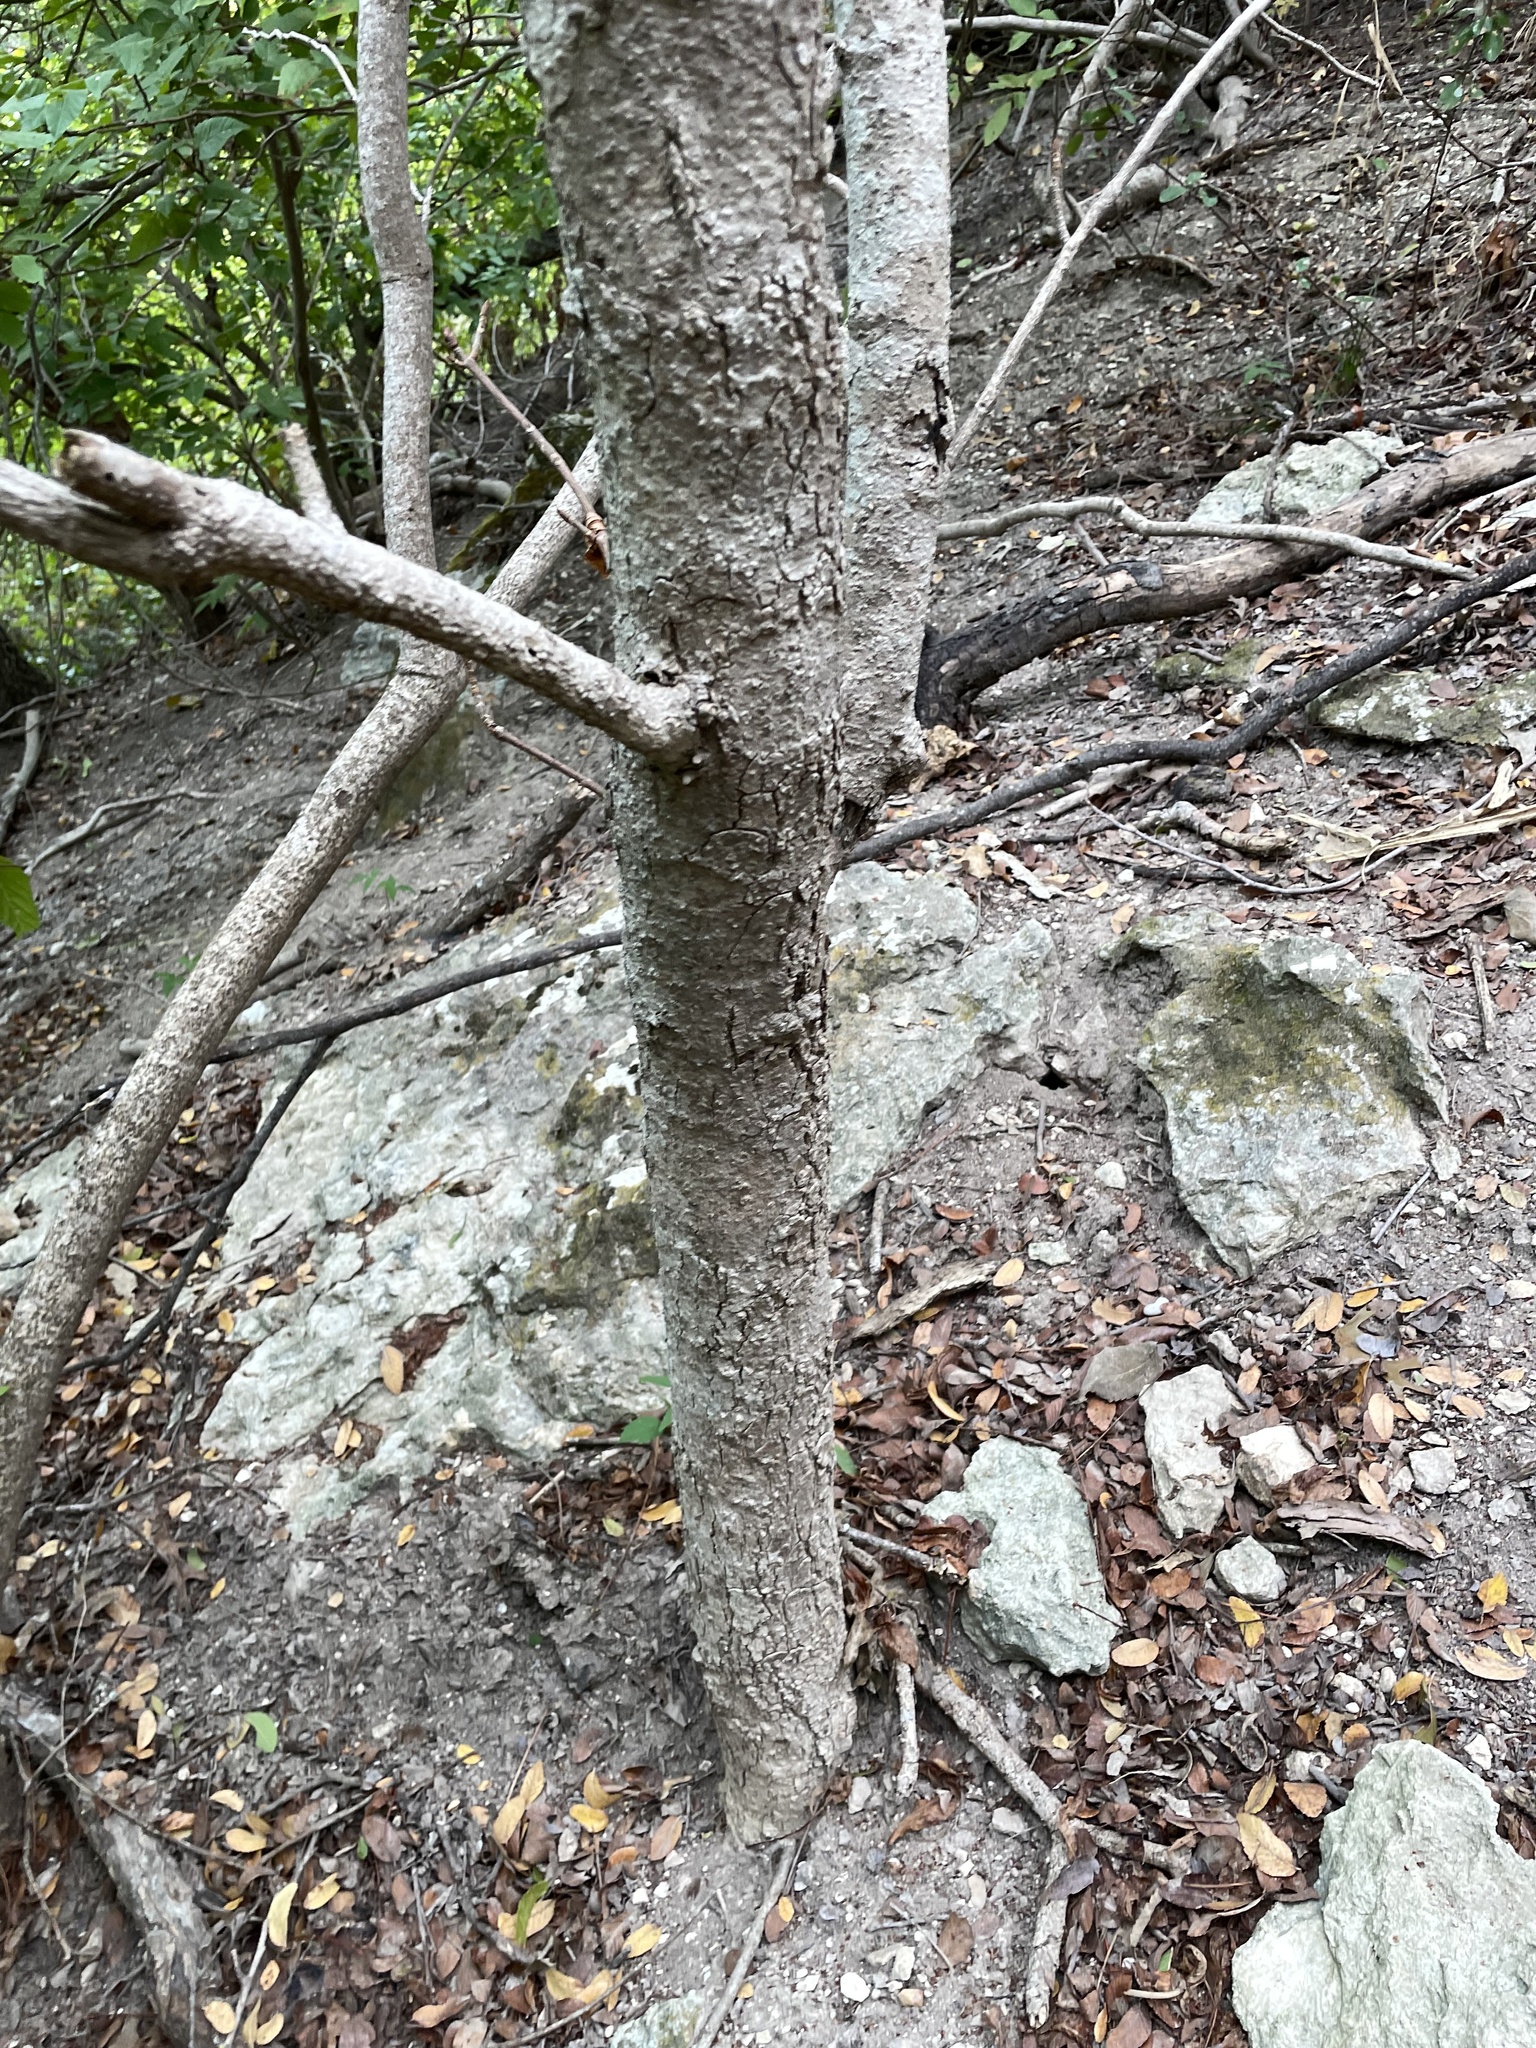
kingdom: Plantae
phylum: Tracheophyta
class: Magnoliopsida
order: Sapindales
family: Sapindaceae
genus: Aesculus
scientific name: Aesculus glabra
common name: Ohio buckeye
